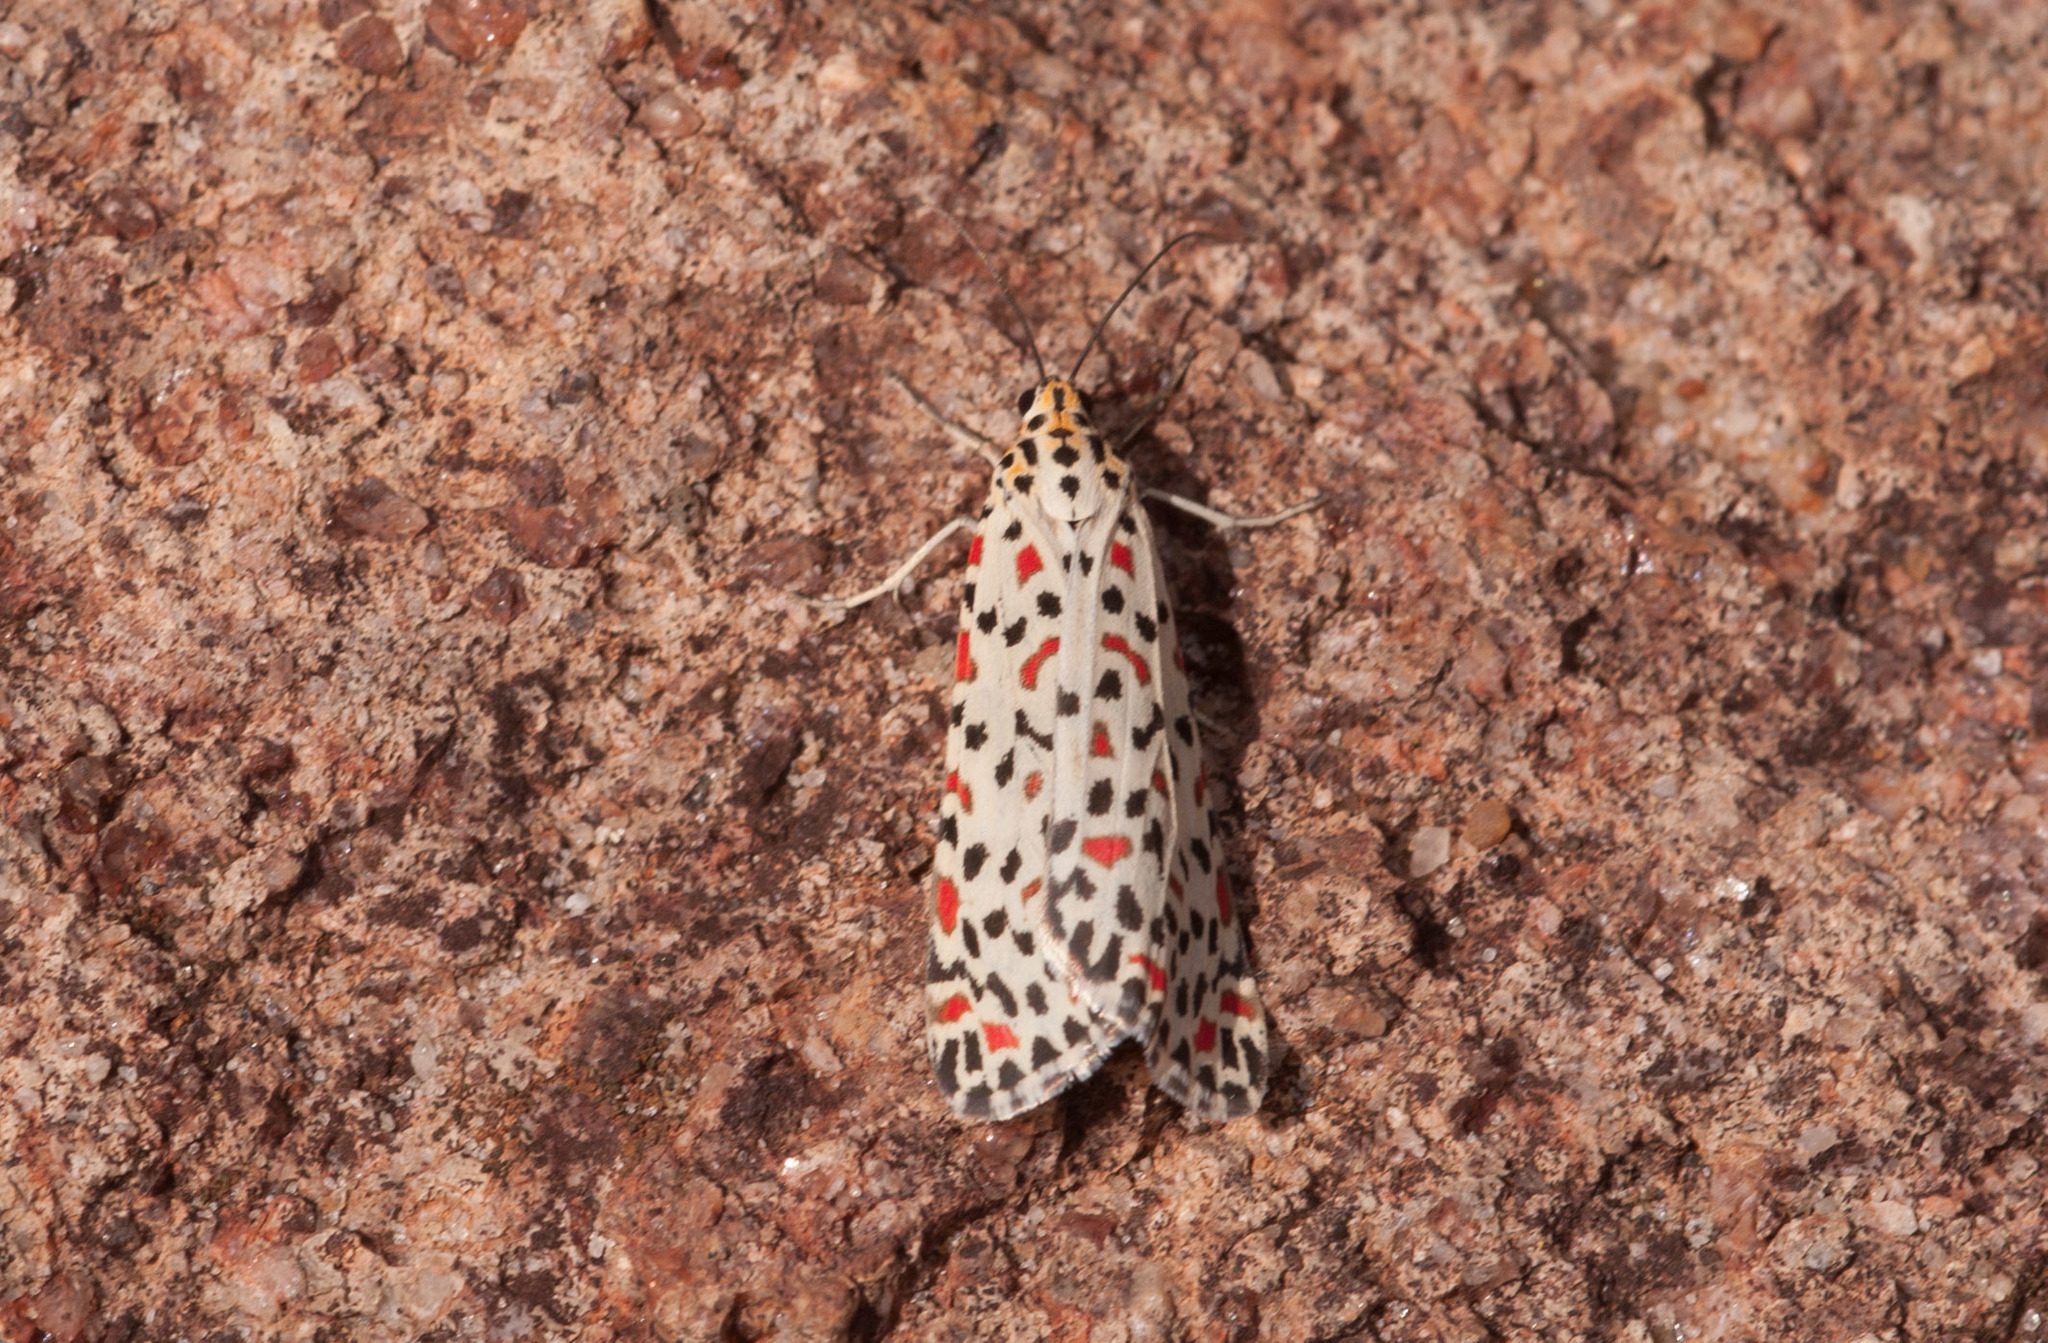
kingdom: Animalia
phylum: Arthropoda
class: Insecta
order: Lepidoptera
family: Erebidae
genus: Utetheisa
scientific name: Utetheisa lotrix
